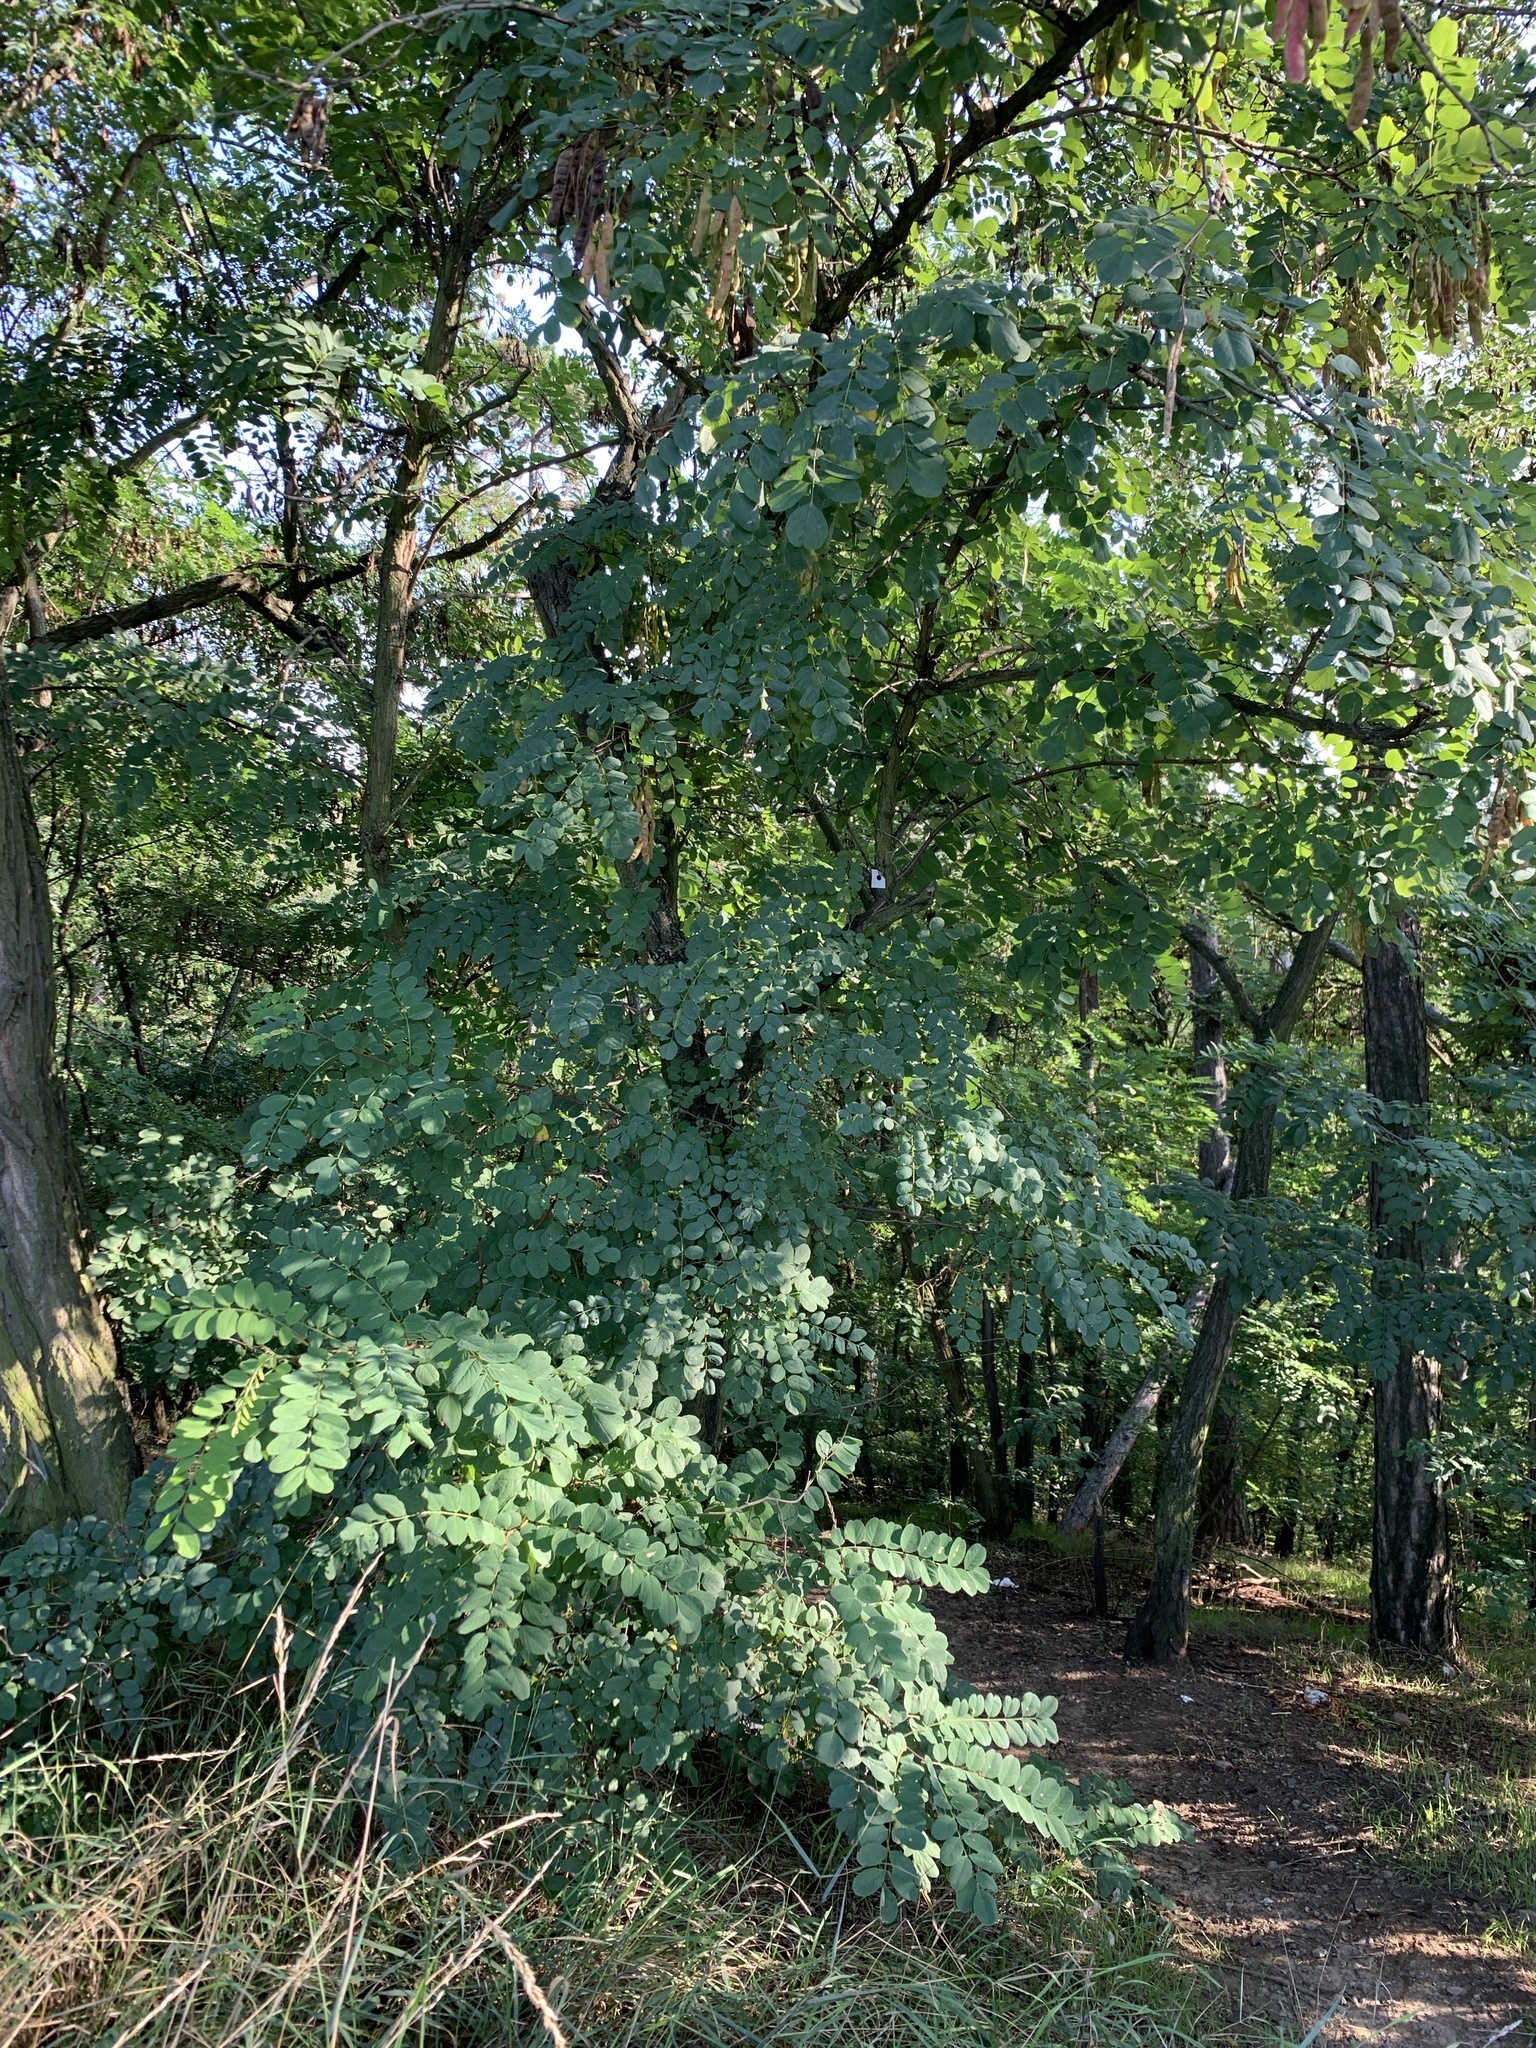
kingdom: Plantae
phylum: Tracheophyta
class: Magnoliopsida
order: Fabales
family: Fabaceae
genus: Robinia
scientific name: Robinia pseudoacacia
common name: Black locust
